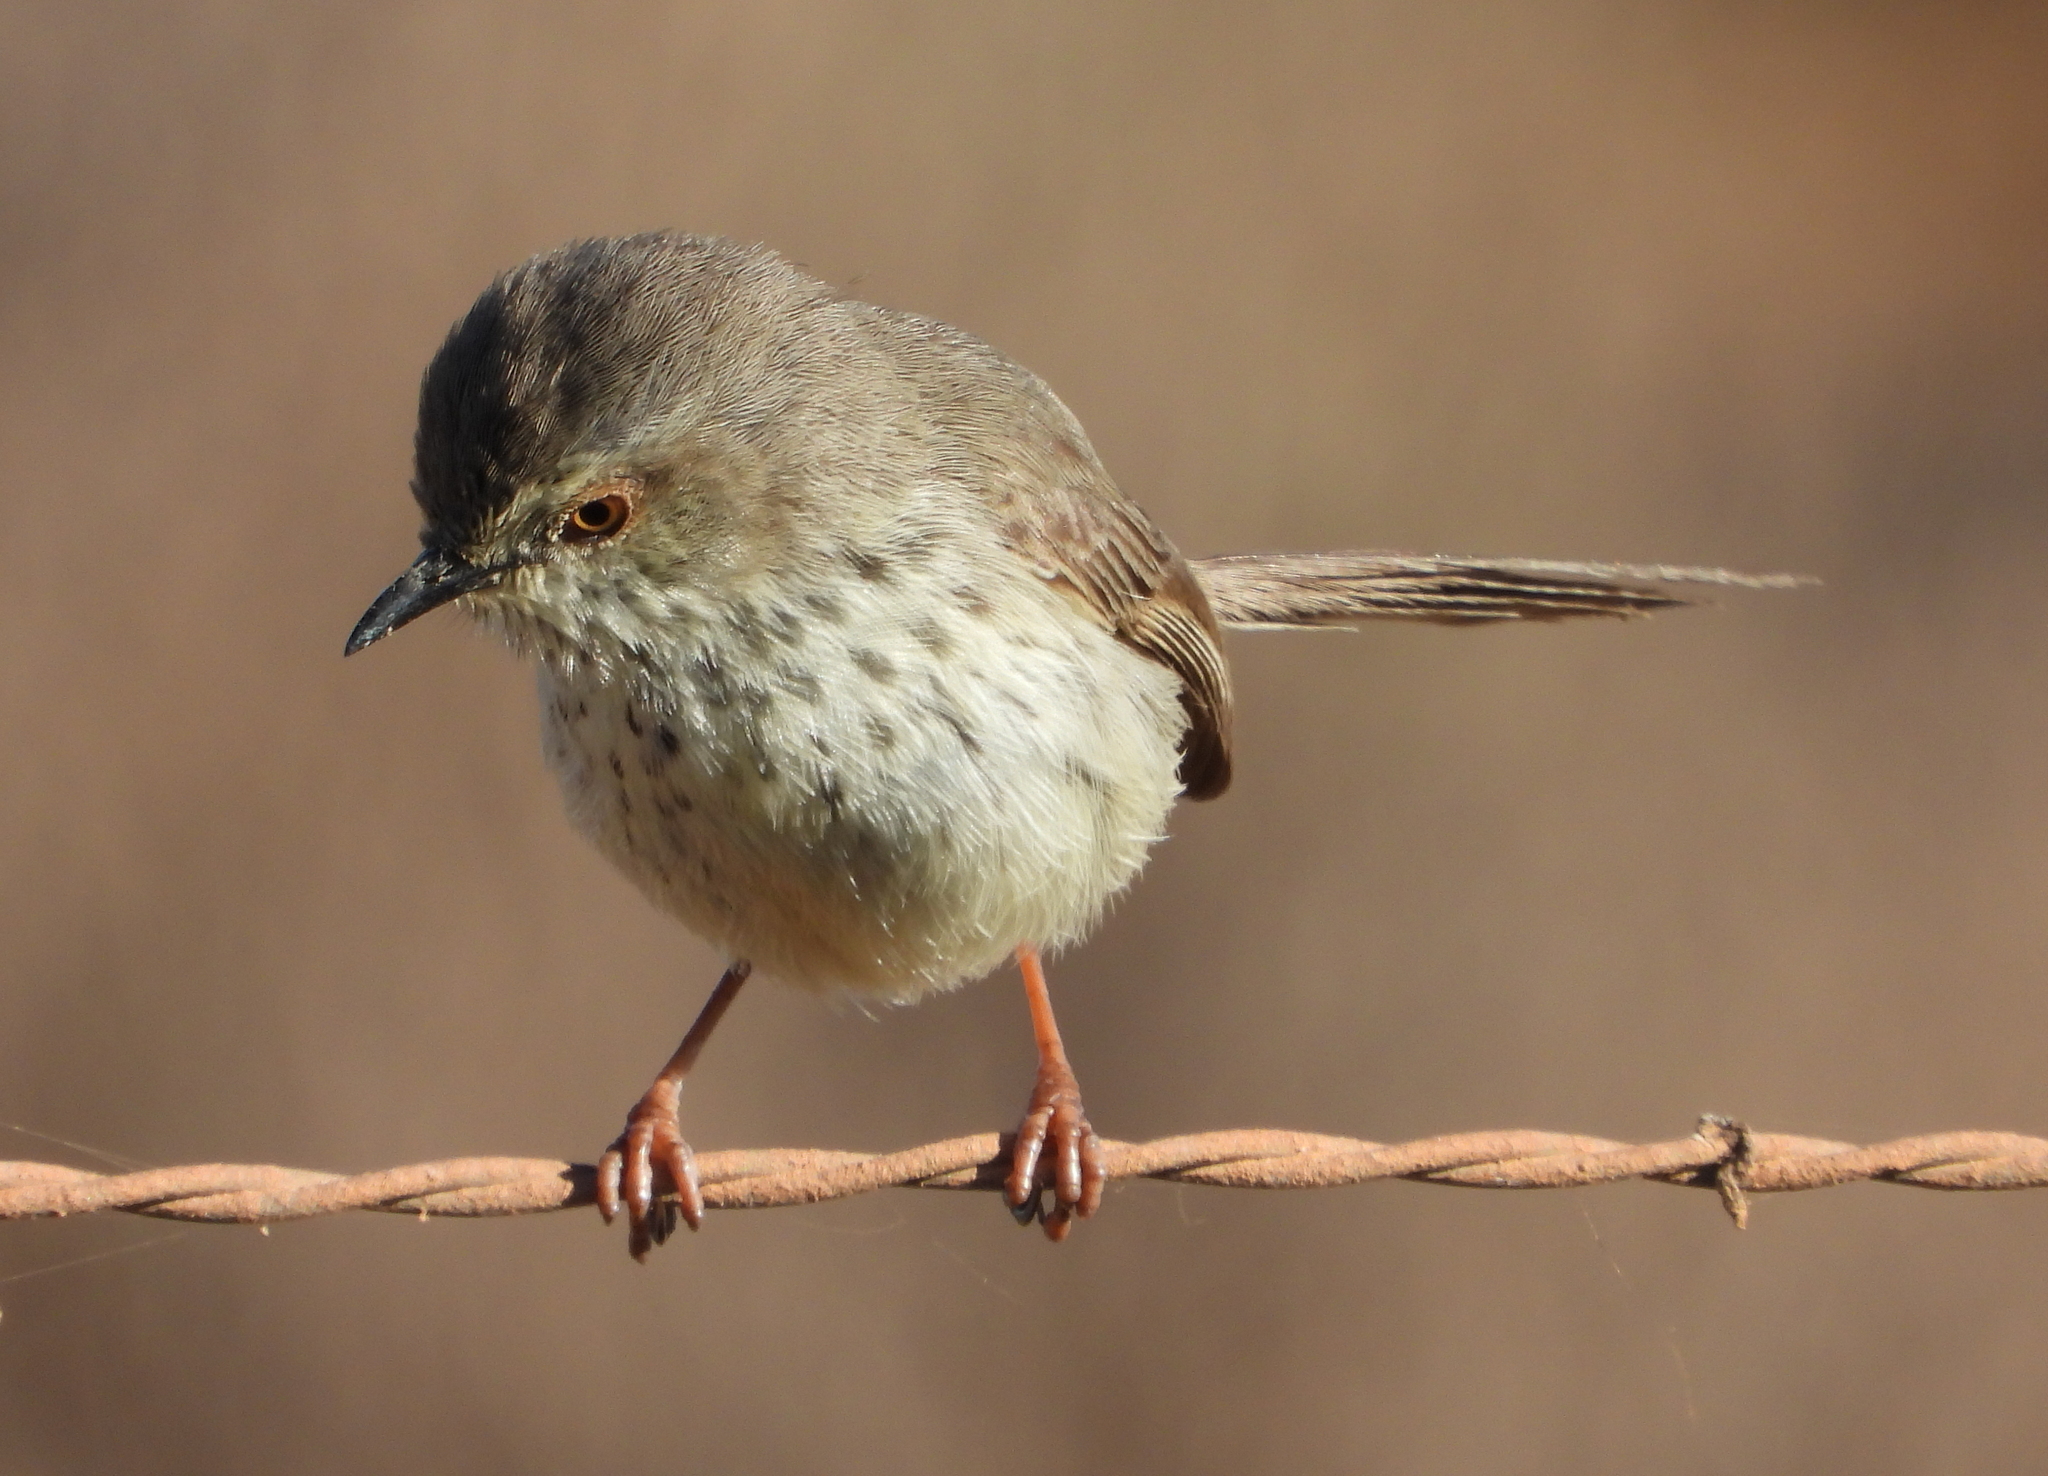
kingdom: Animalia
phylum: Chordata
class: Aves
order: Passeriformes
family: Cisticolidae
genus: Prinia
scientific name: Prinia maculosa
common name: Karoo prinia
